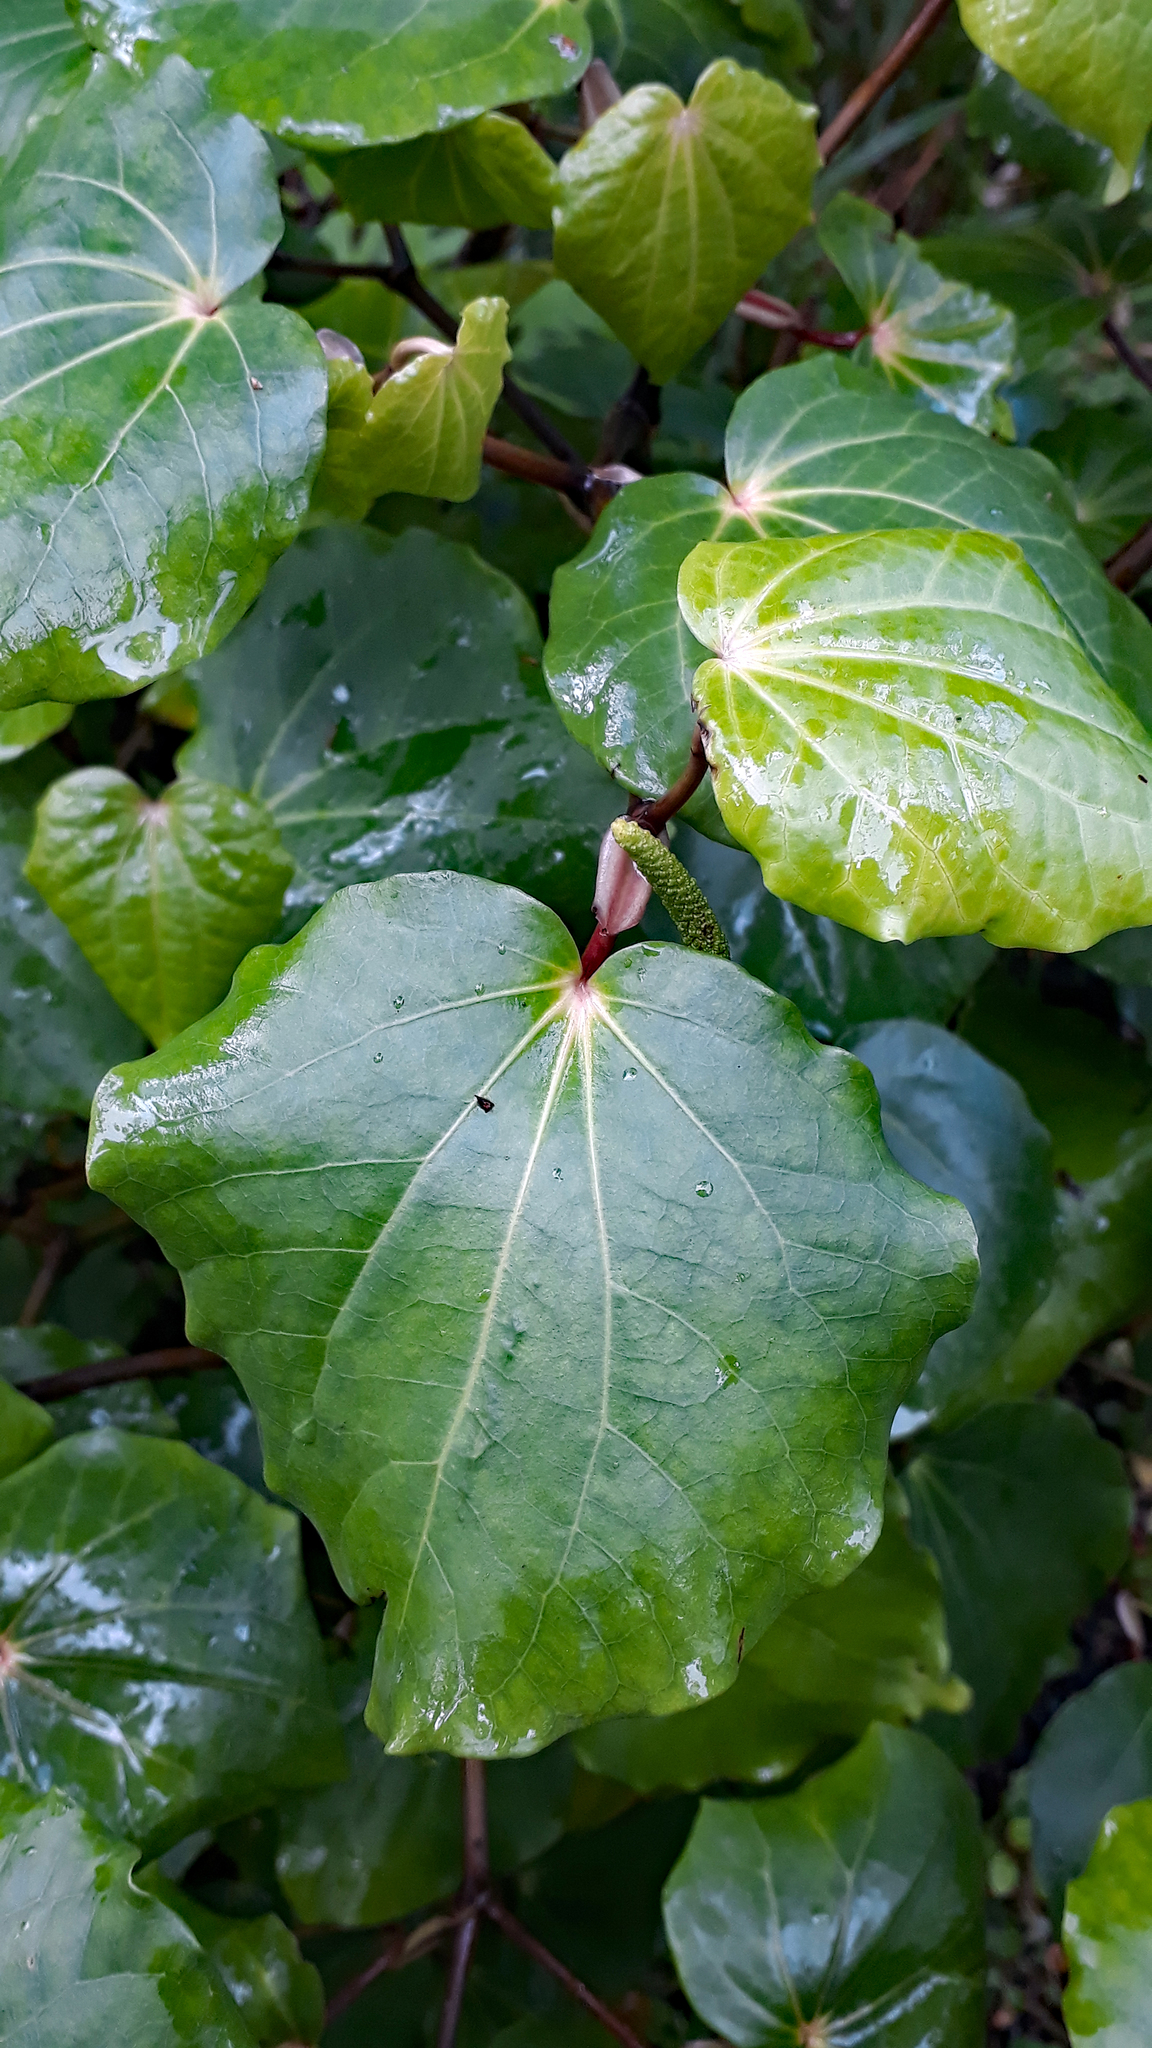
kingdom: Plantae
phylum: Tracheophyta
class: Magnoliopsida
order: Piperales
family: Piperaceae
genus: Macropiper
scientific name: Macropiper excelsum
